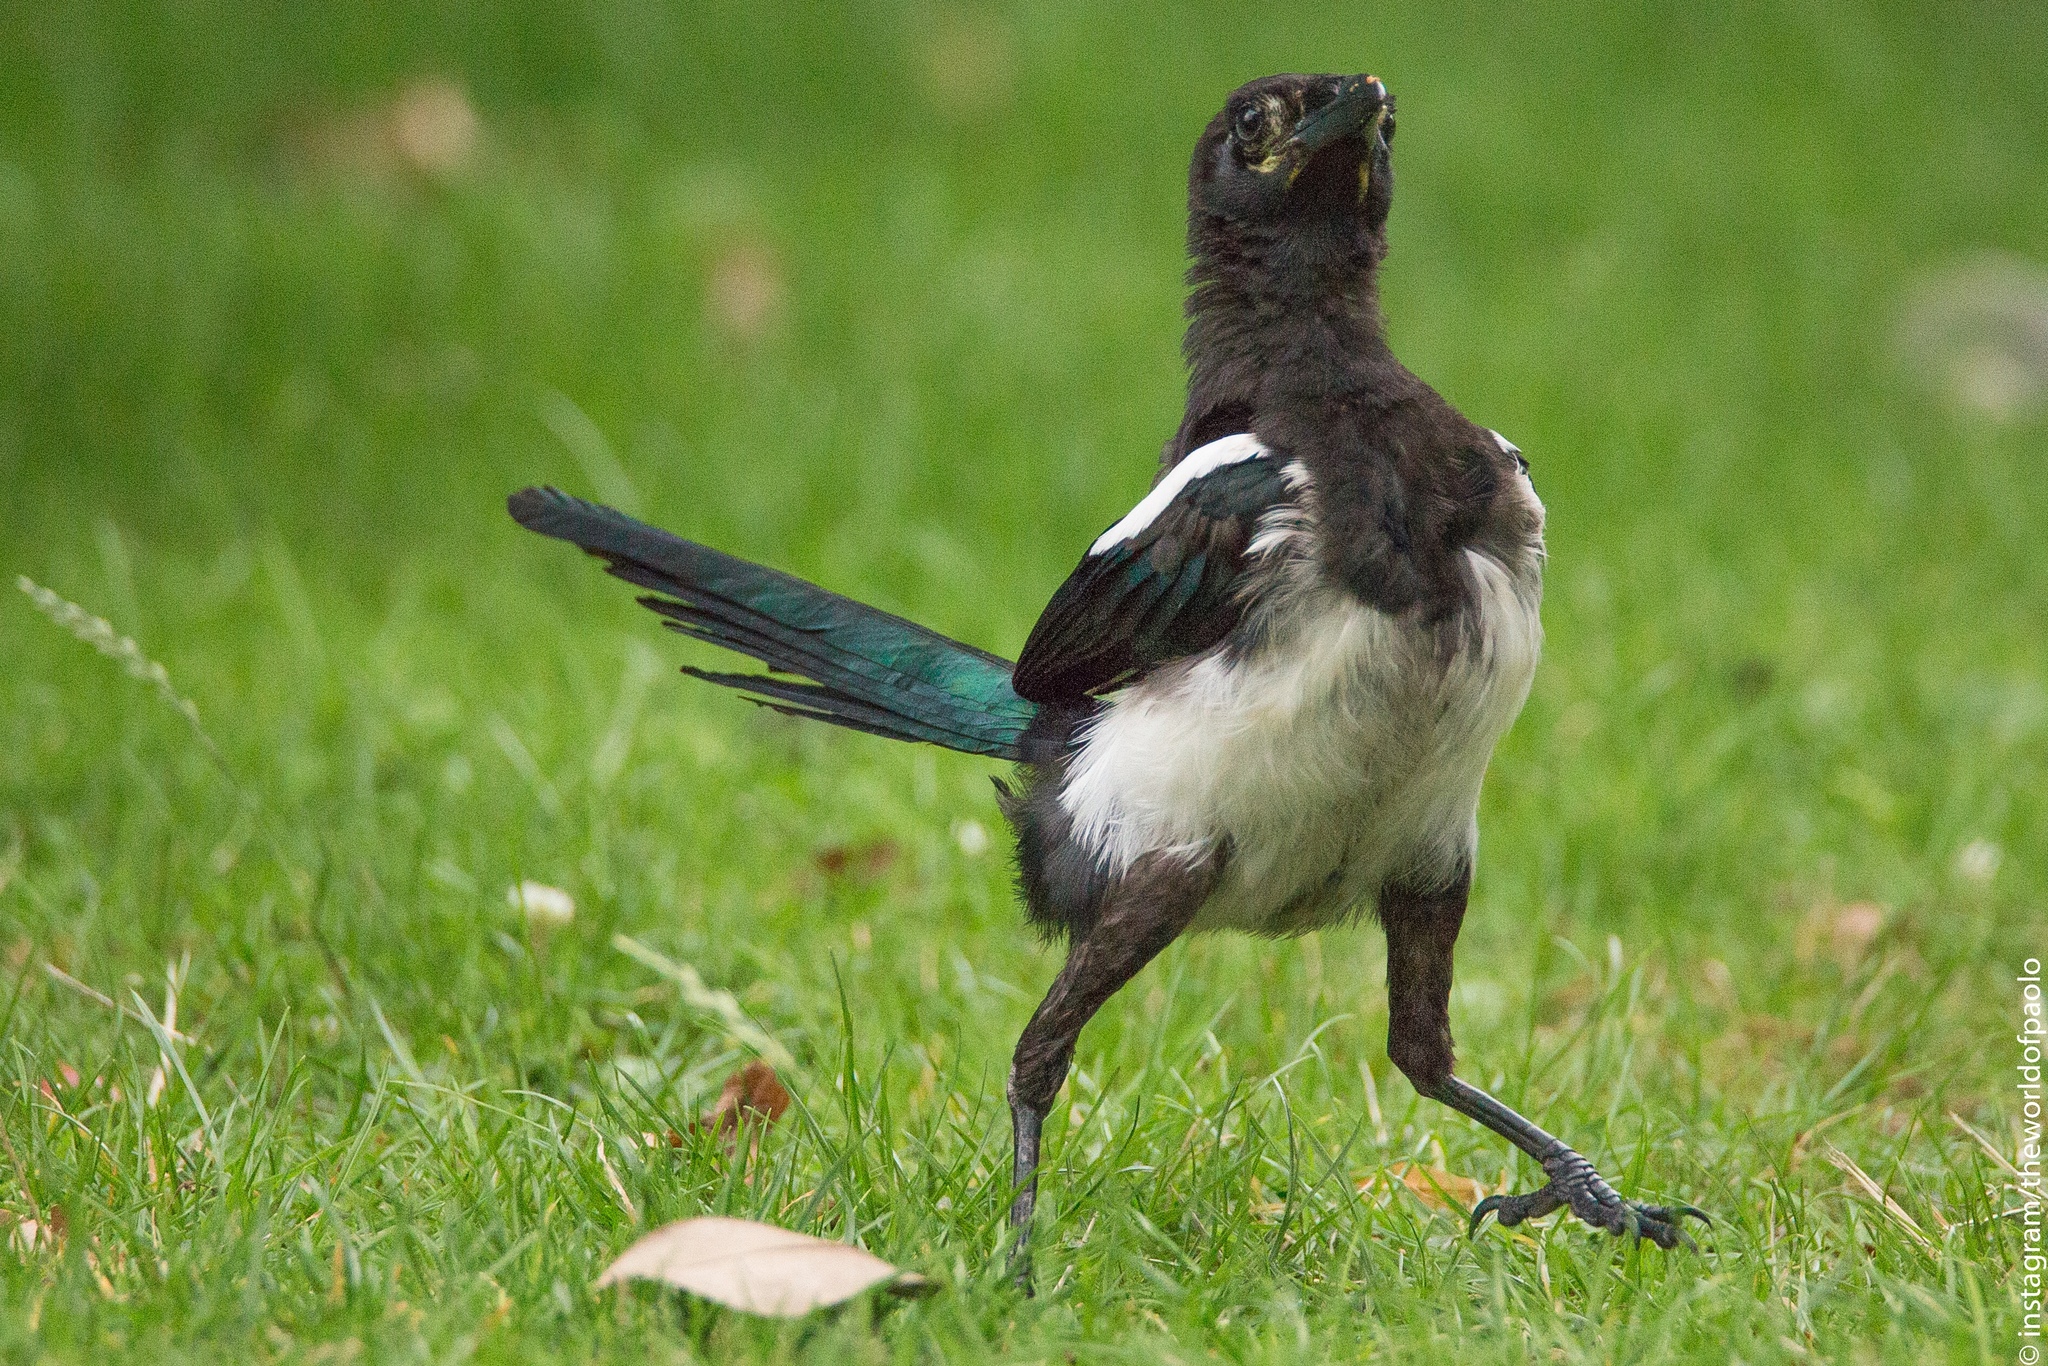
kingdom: Animalia
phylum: Chordata
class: Aves
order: Passeriformes
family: Corvidae
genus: Pica
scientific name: Pica pica
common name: Eurasian magpie
